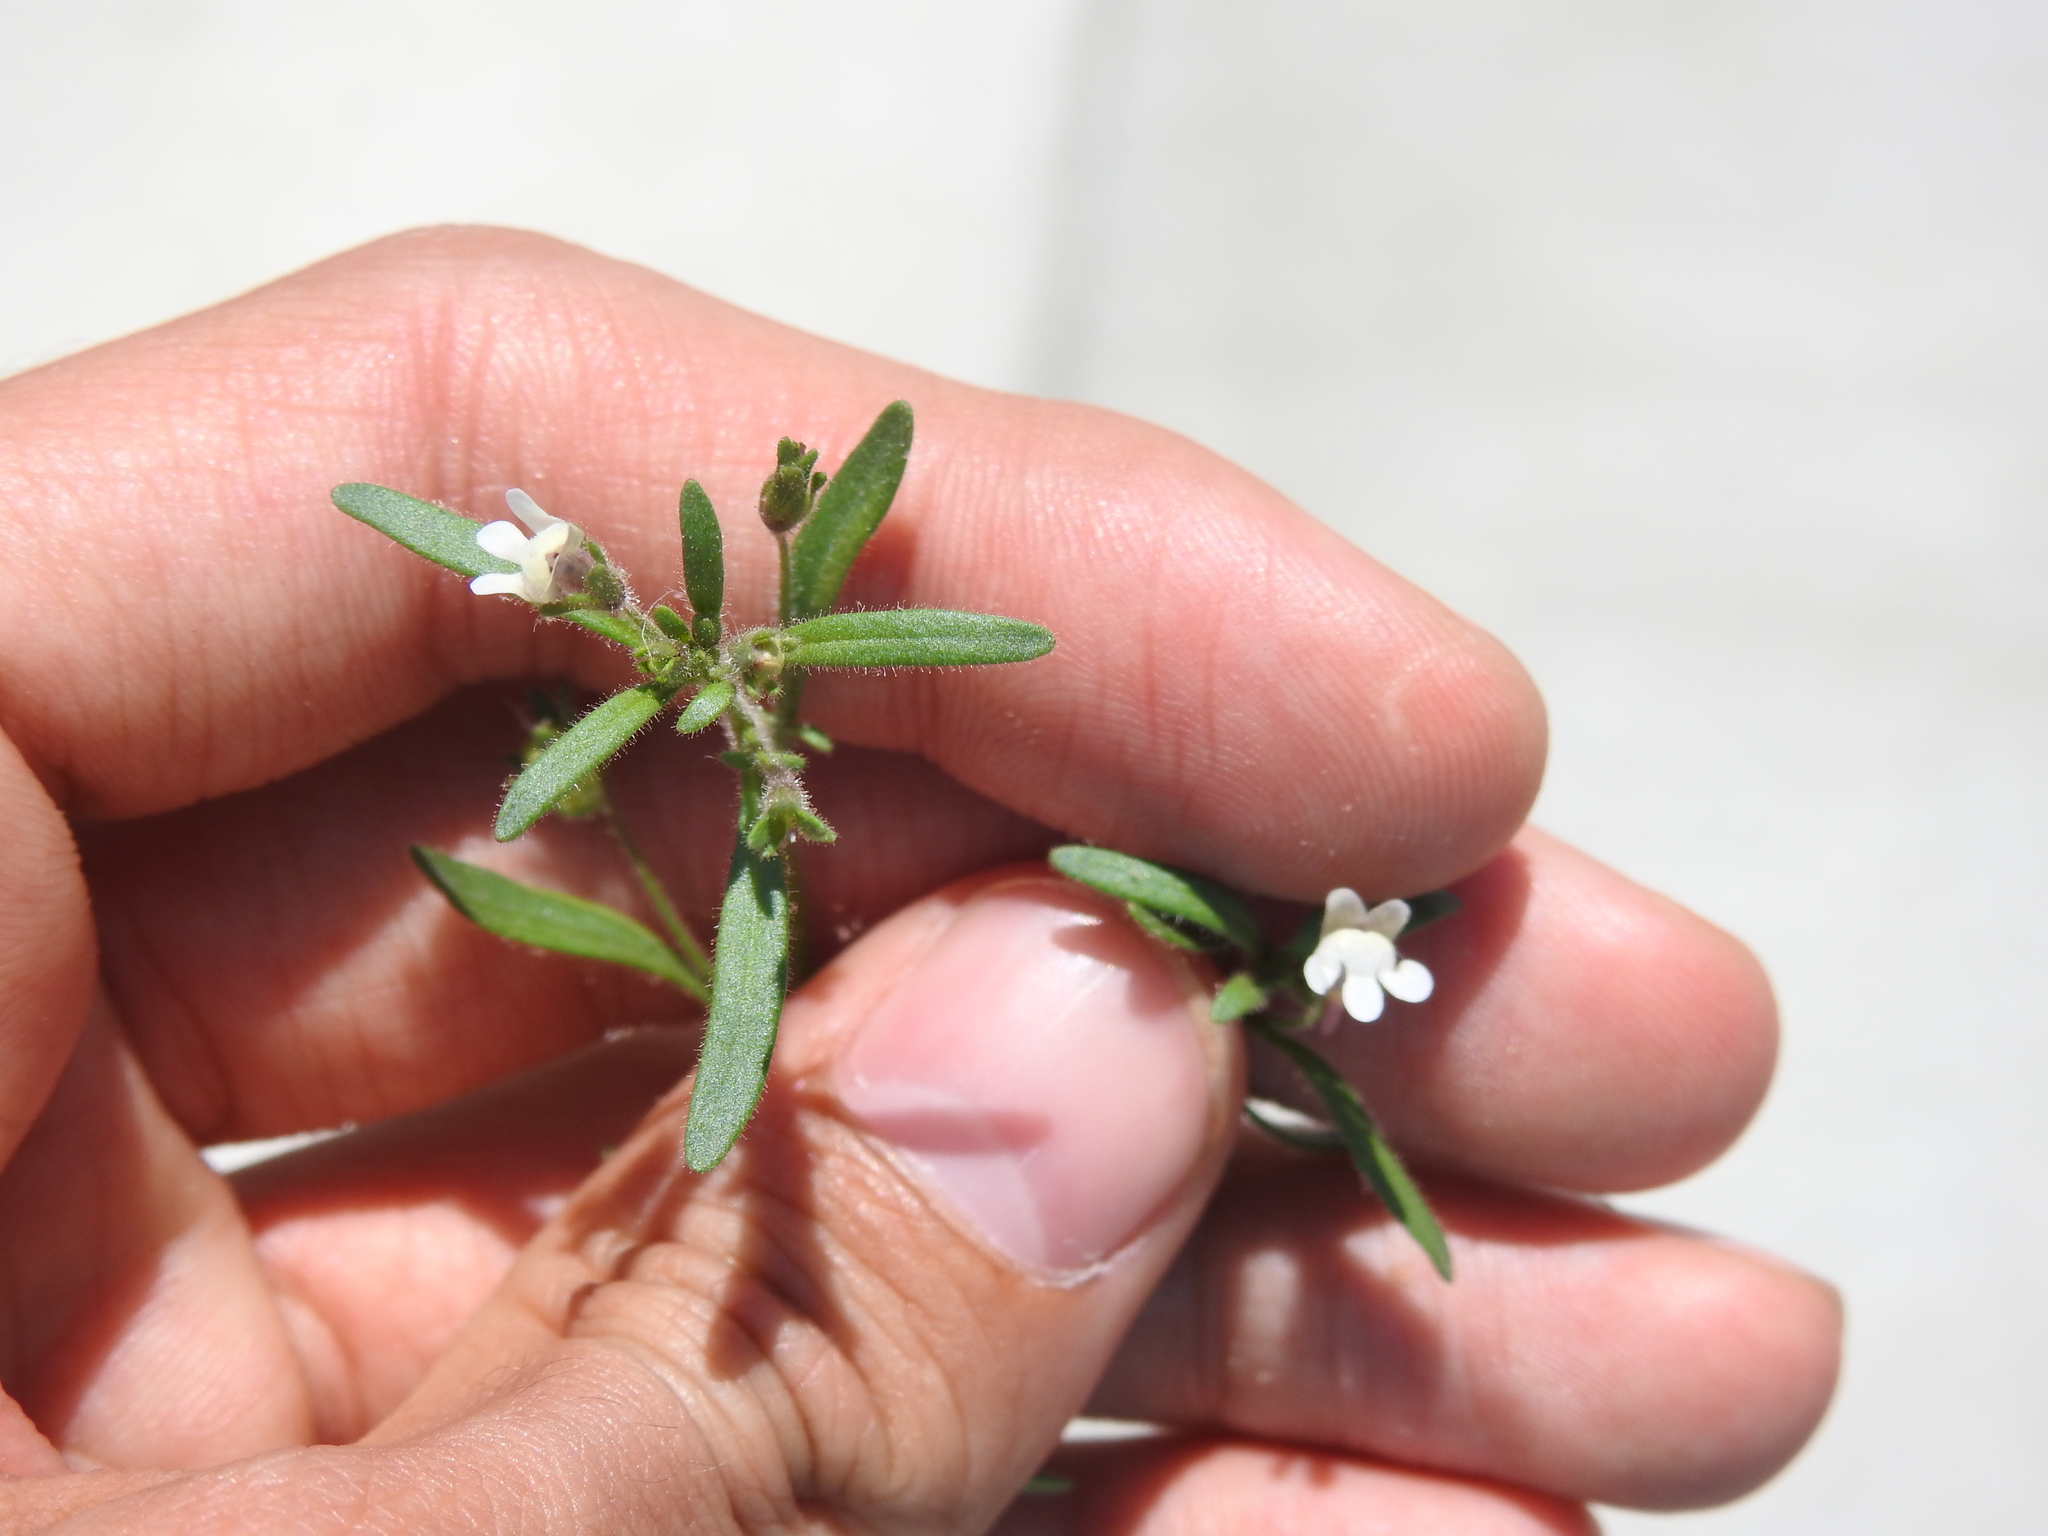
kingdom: Plantae
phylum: Tracheophyta
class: Magnoliopsida
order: Lamiales
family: Plantaginaceae
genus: Chaenorhinum
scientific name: Chaenorhinum minus
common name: Dwarf snapdragon
